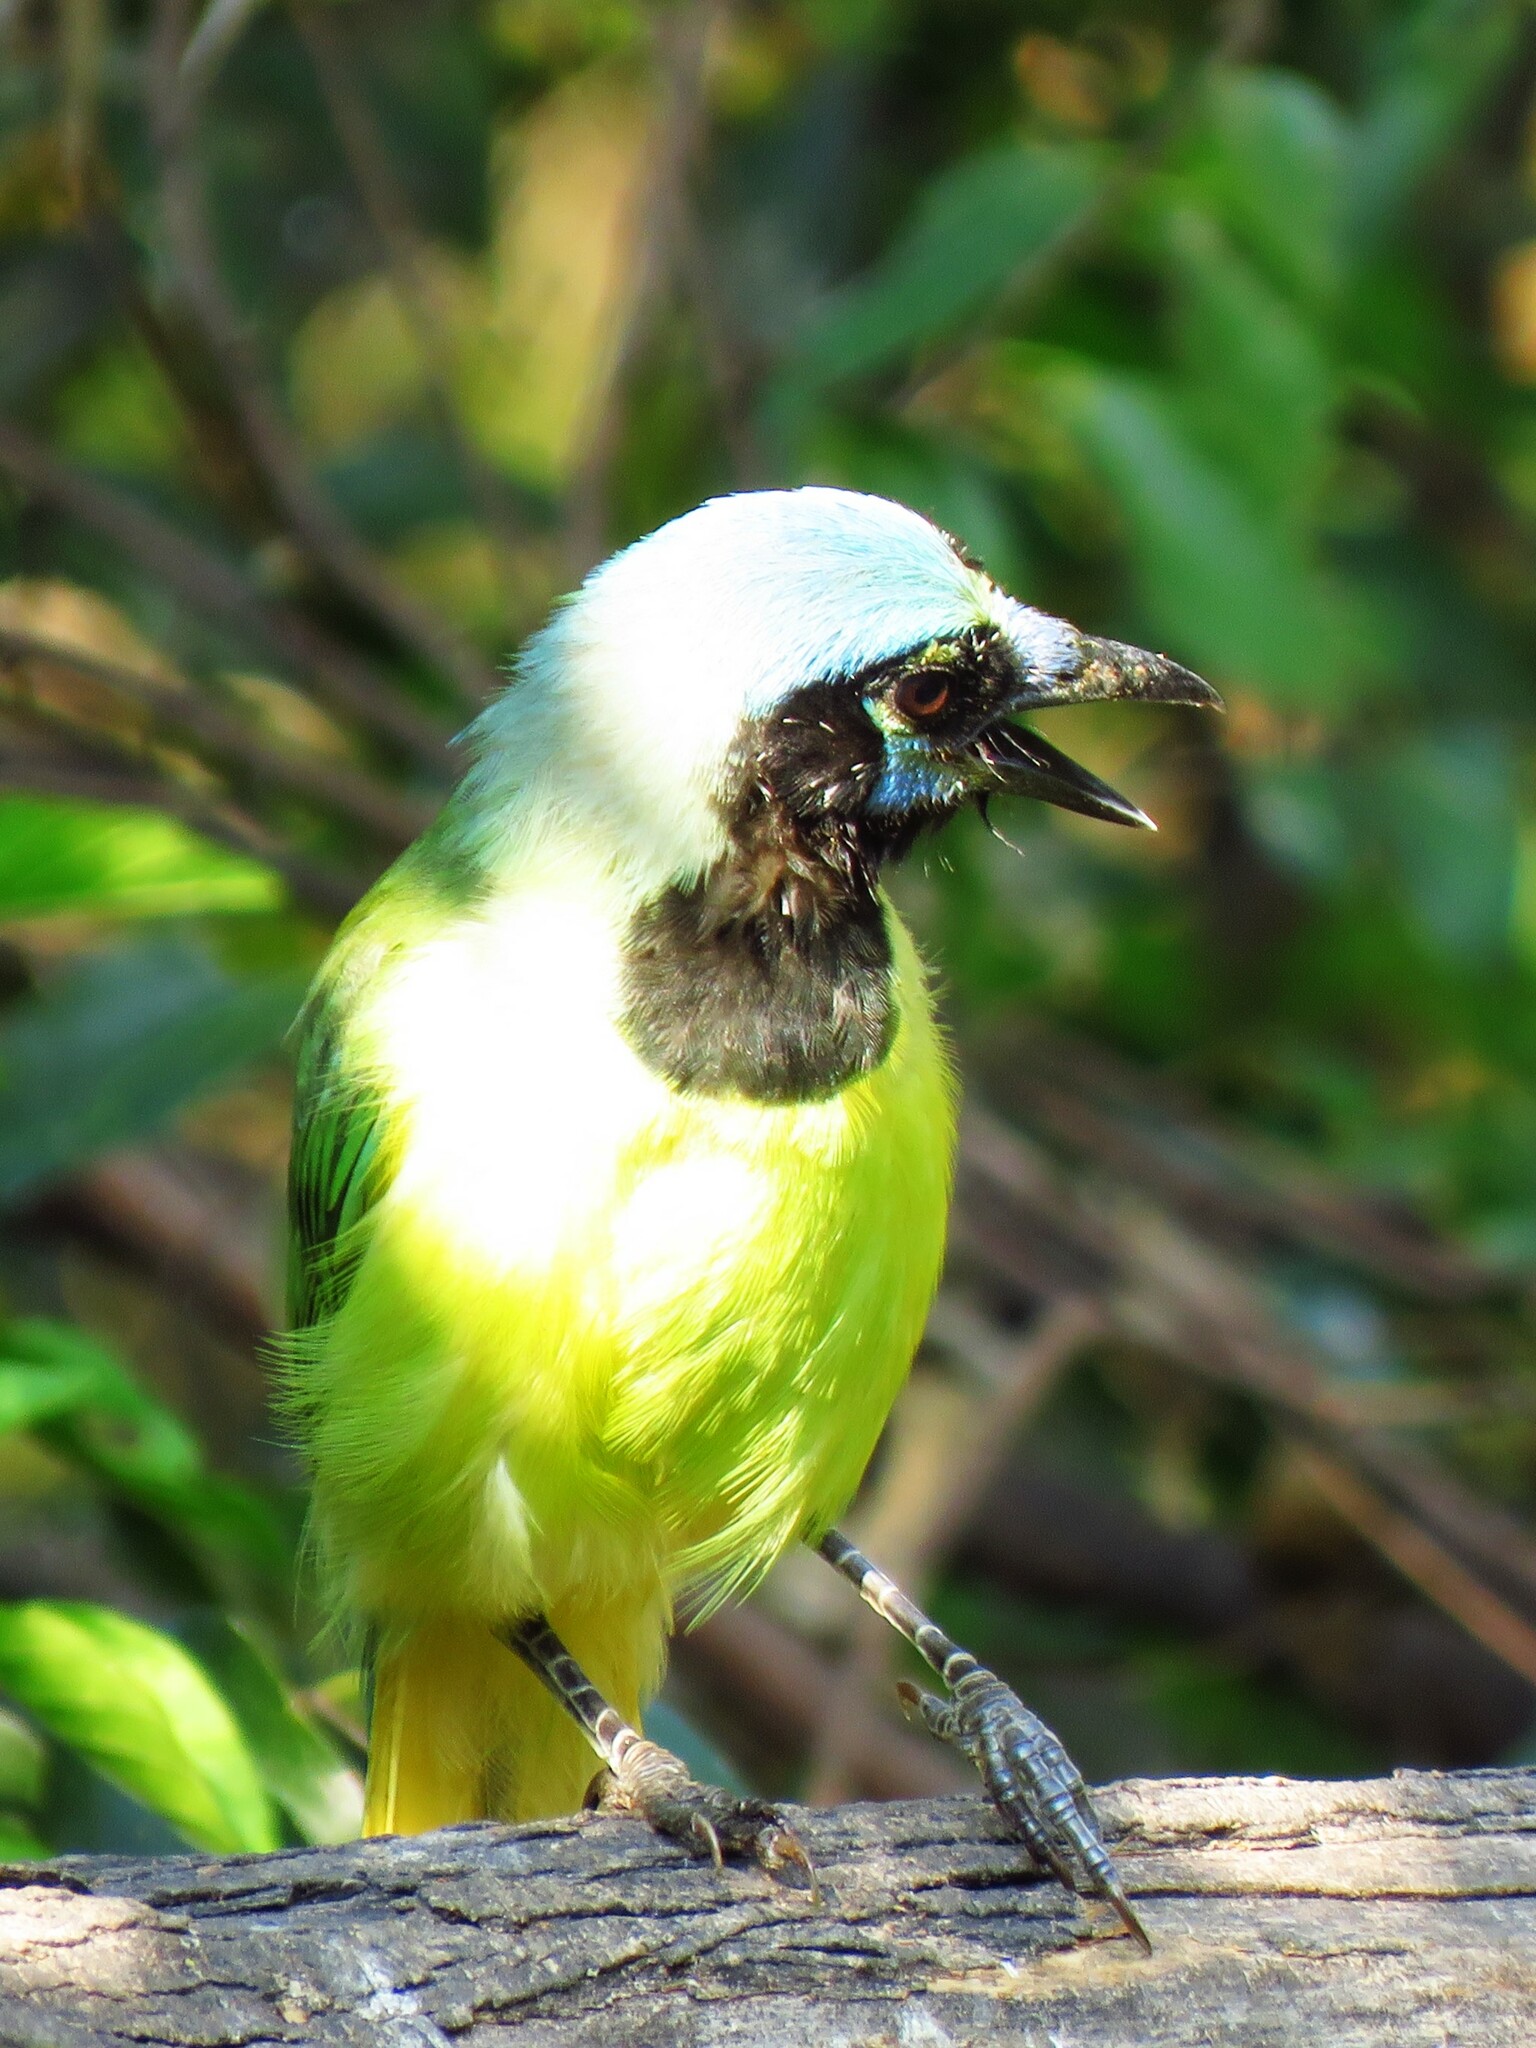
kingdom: Animalia
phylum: Chordata
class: Aves
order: Passeriformes
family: Corvidae
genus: Cyanocorax
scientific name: Cyanocorax yncas
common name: Green jay
